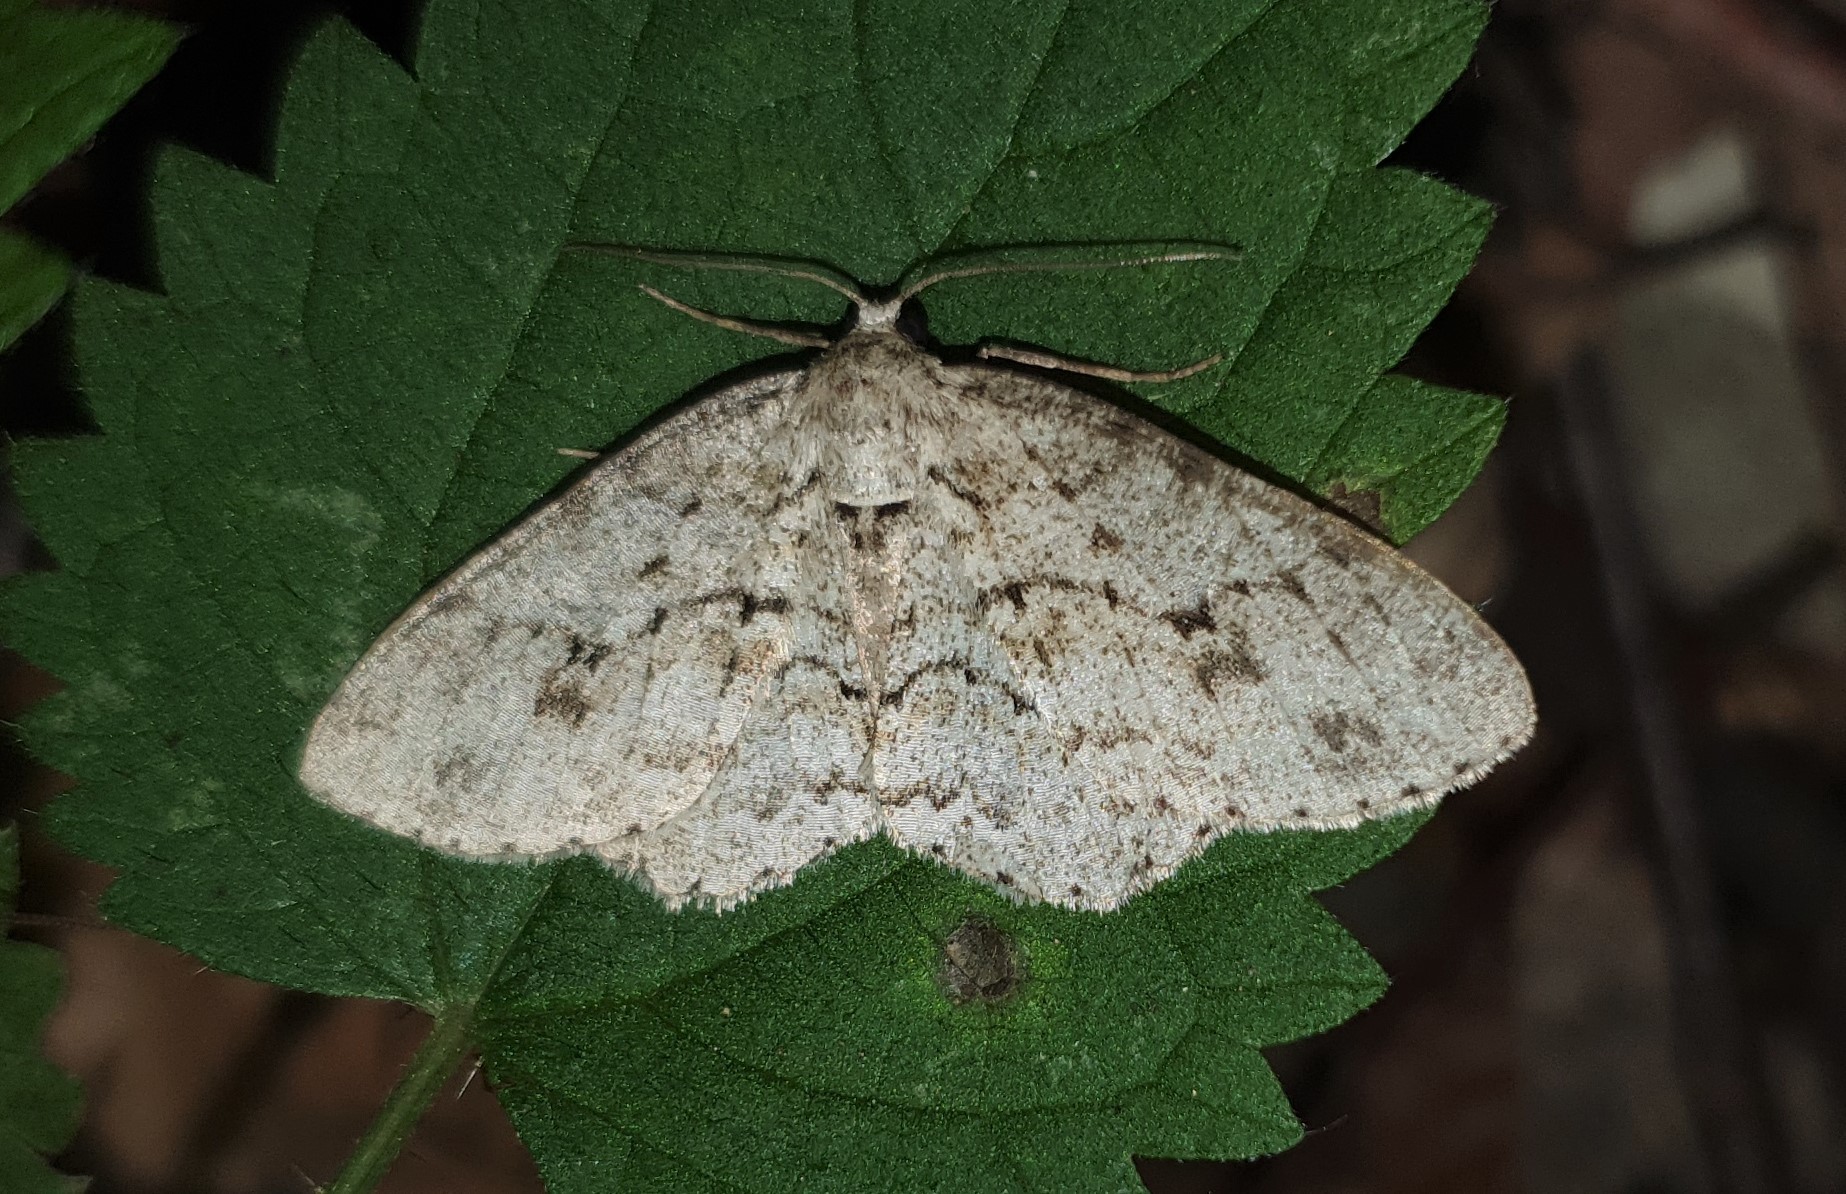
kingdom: Animalia
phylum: Arthropoda
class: Insecta
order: Lepidoptera
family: Geometridae
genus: Ectropis
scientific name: Ectropis crepuscularia
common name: Engrailed
